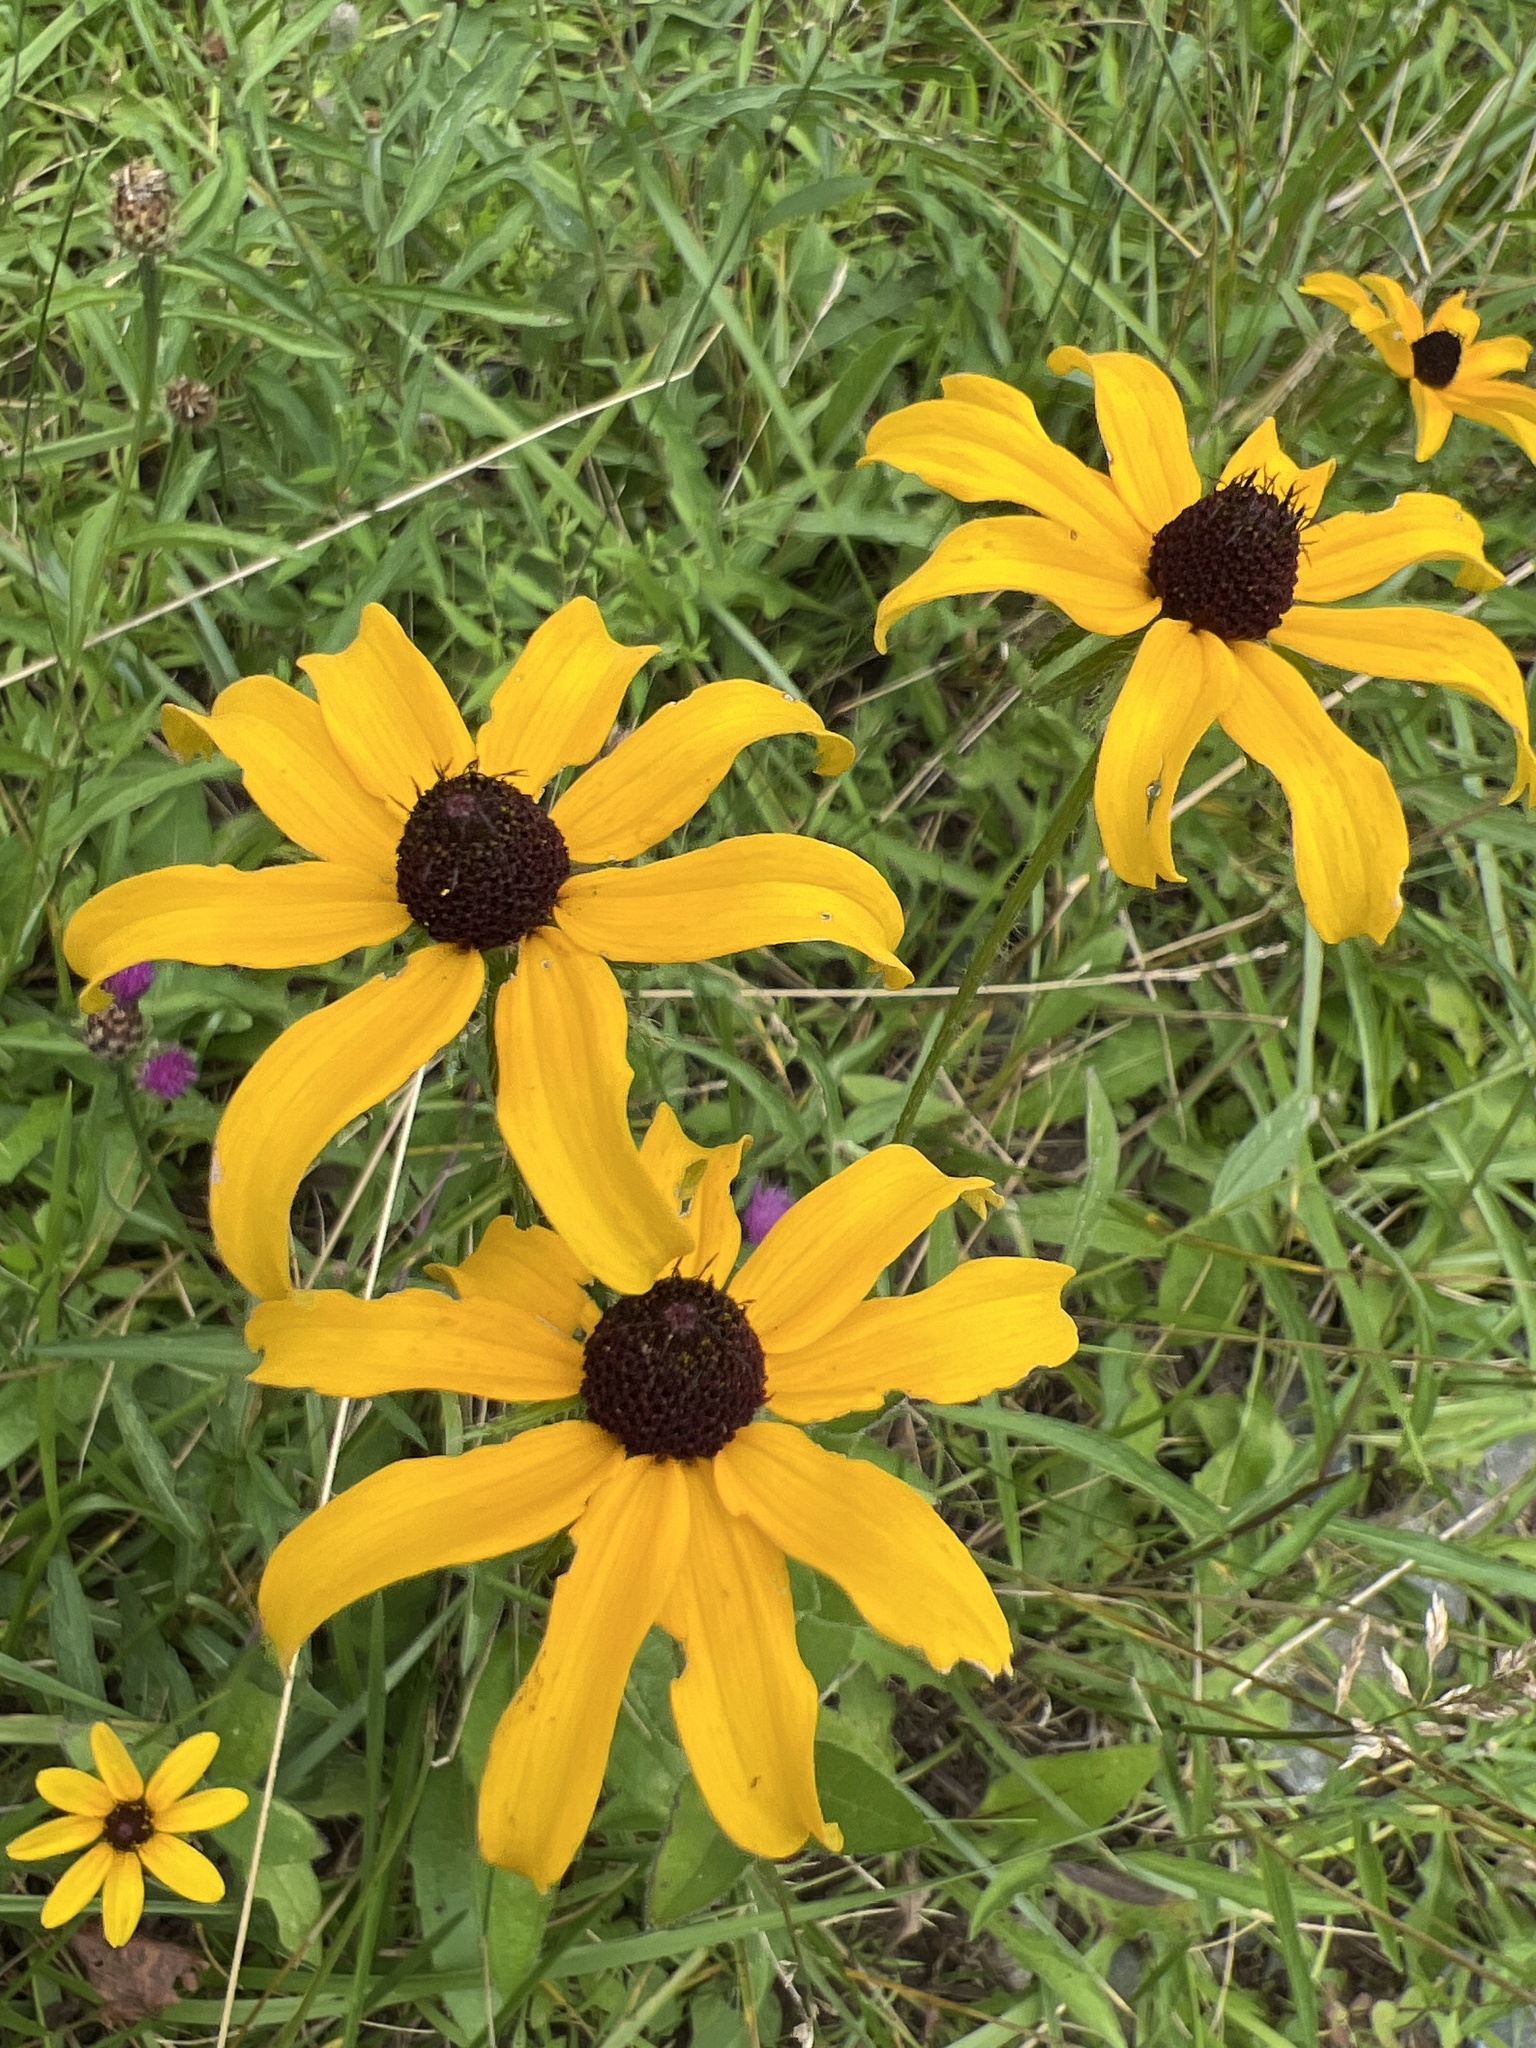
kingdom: Plantae
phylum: Tracheophyta
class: Magnoliopsida
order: Asterales
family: Asteraceae
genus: Rudbeckia
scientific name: Rudbeckia hirta
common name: Black-eyed-susan
